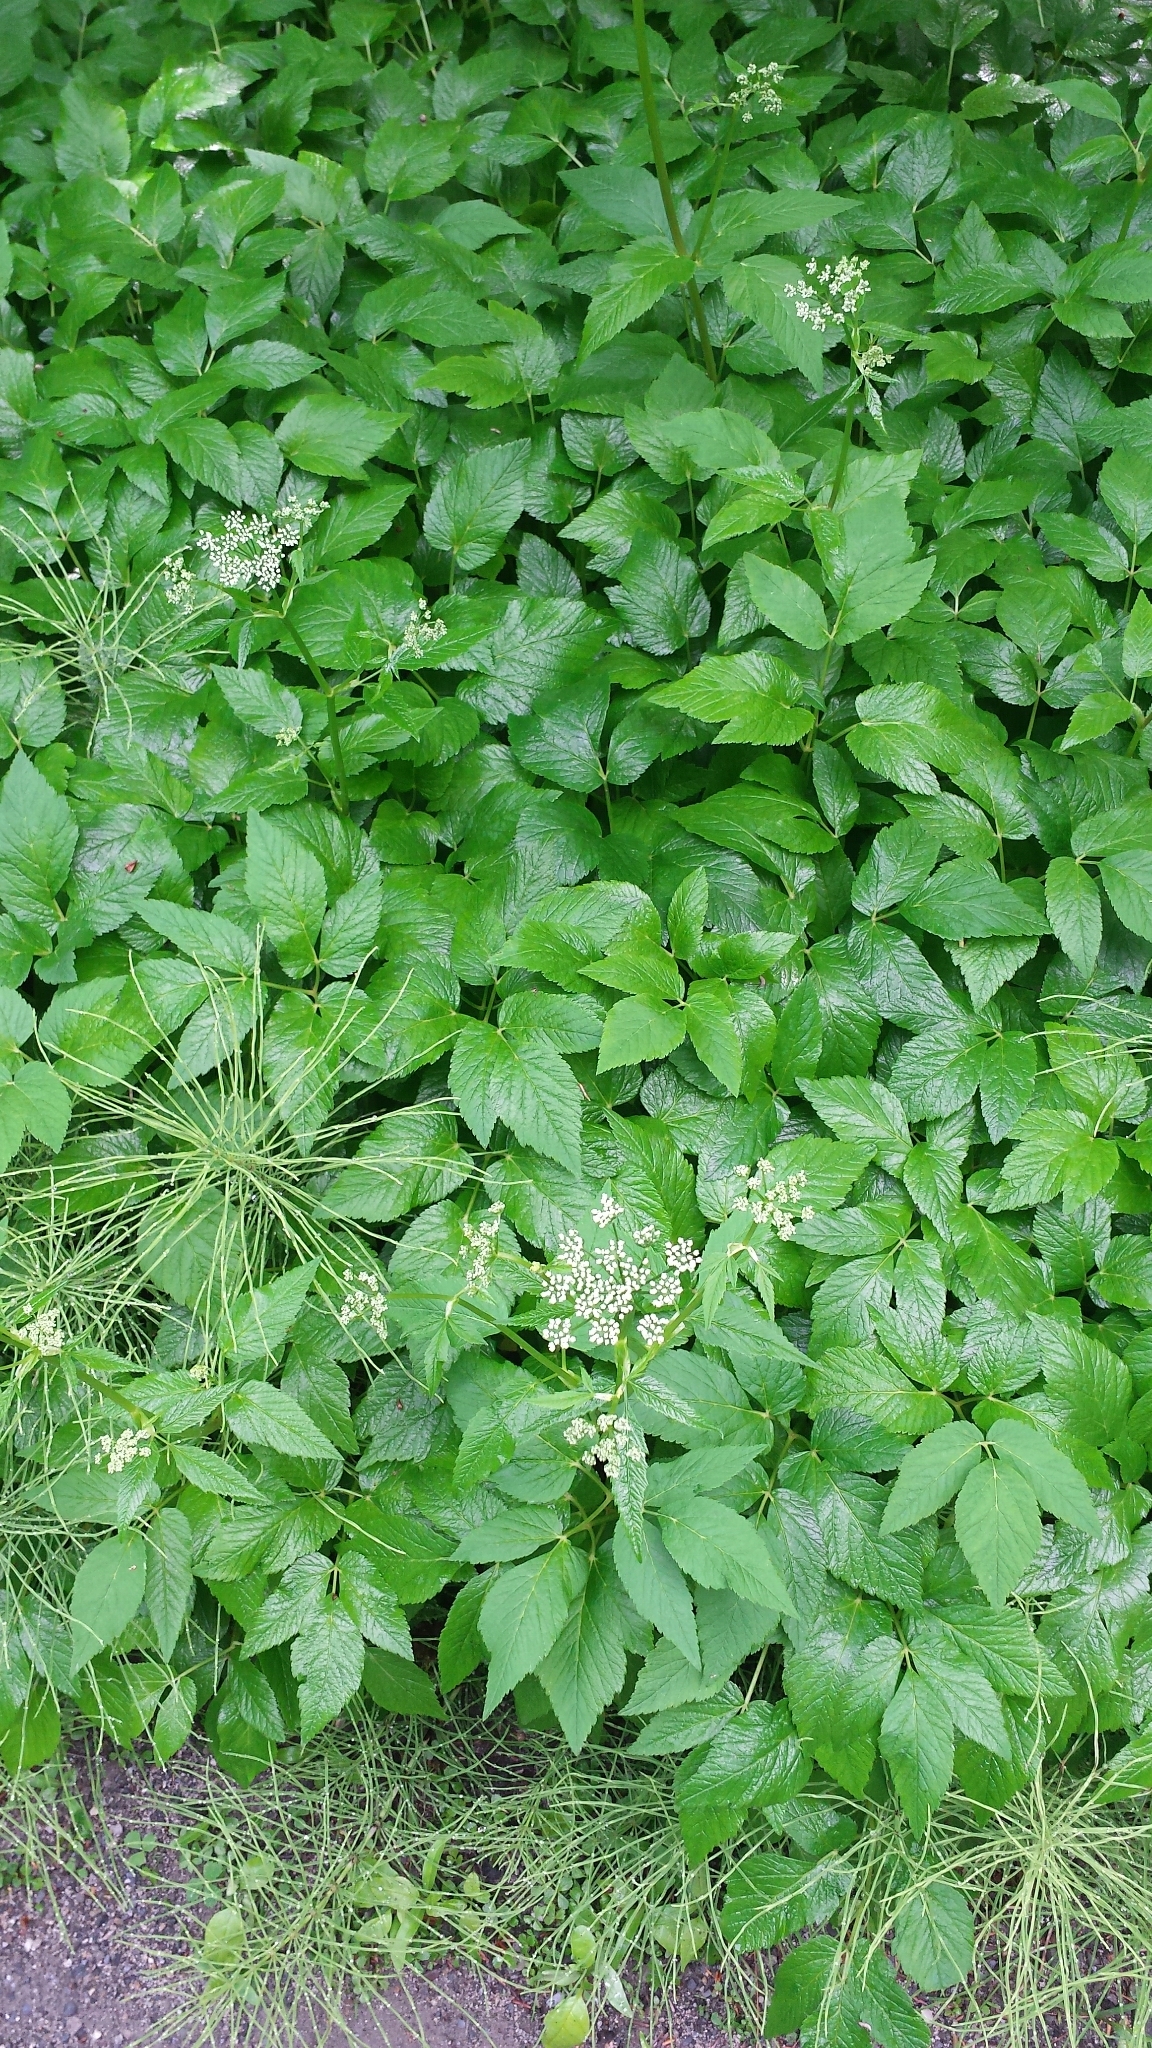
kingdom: Plantae
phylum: Tracheophyta
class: Magnoliopsida
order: Apiales
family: Apiaceae
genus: Aegopodium
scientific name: Aegopodium podagraria
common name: Ground-elder
